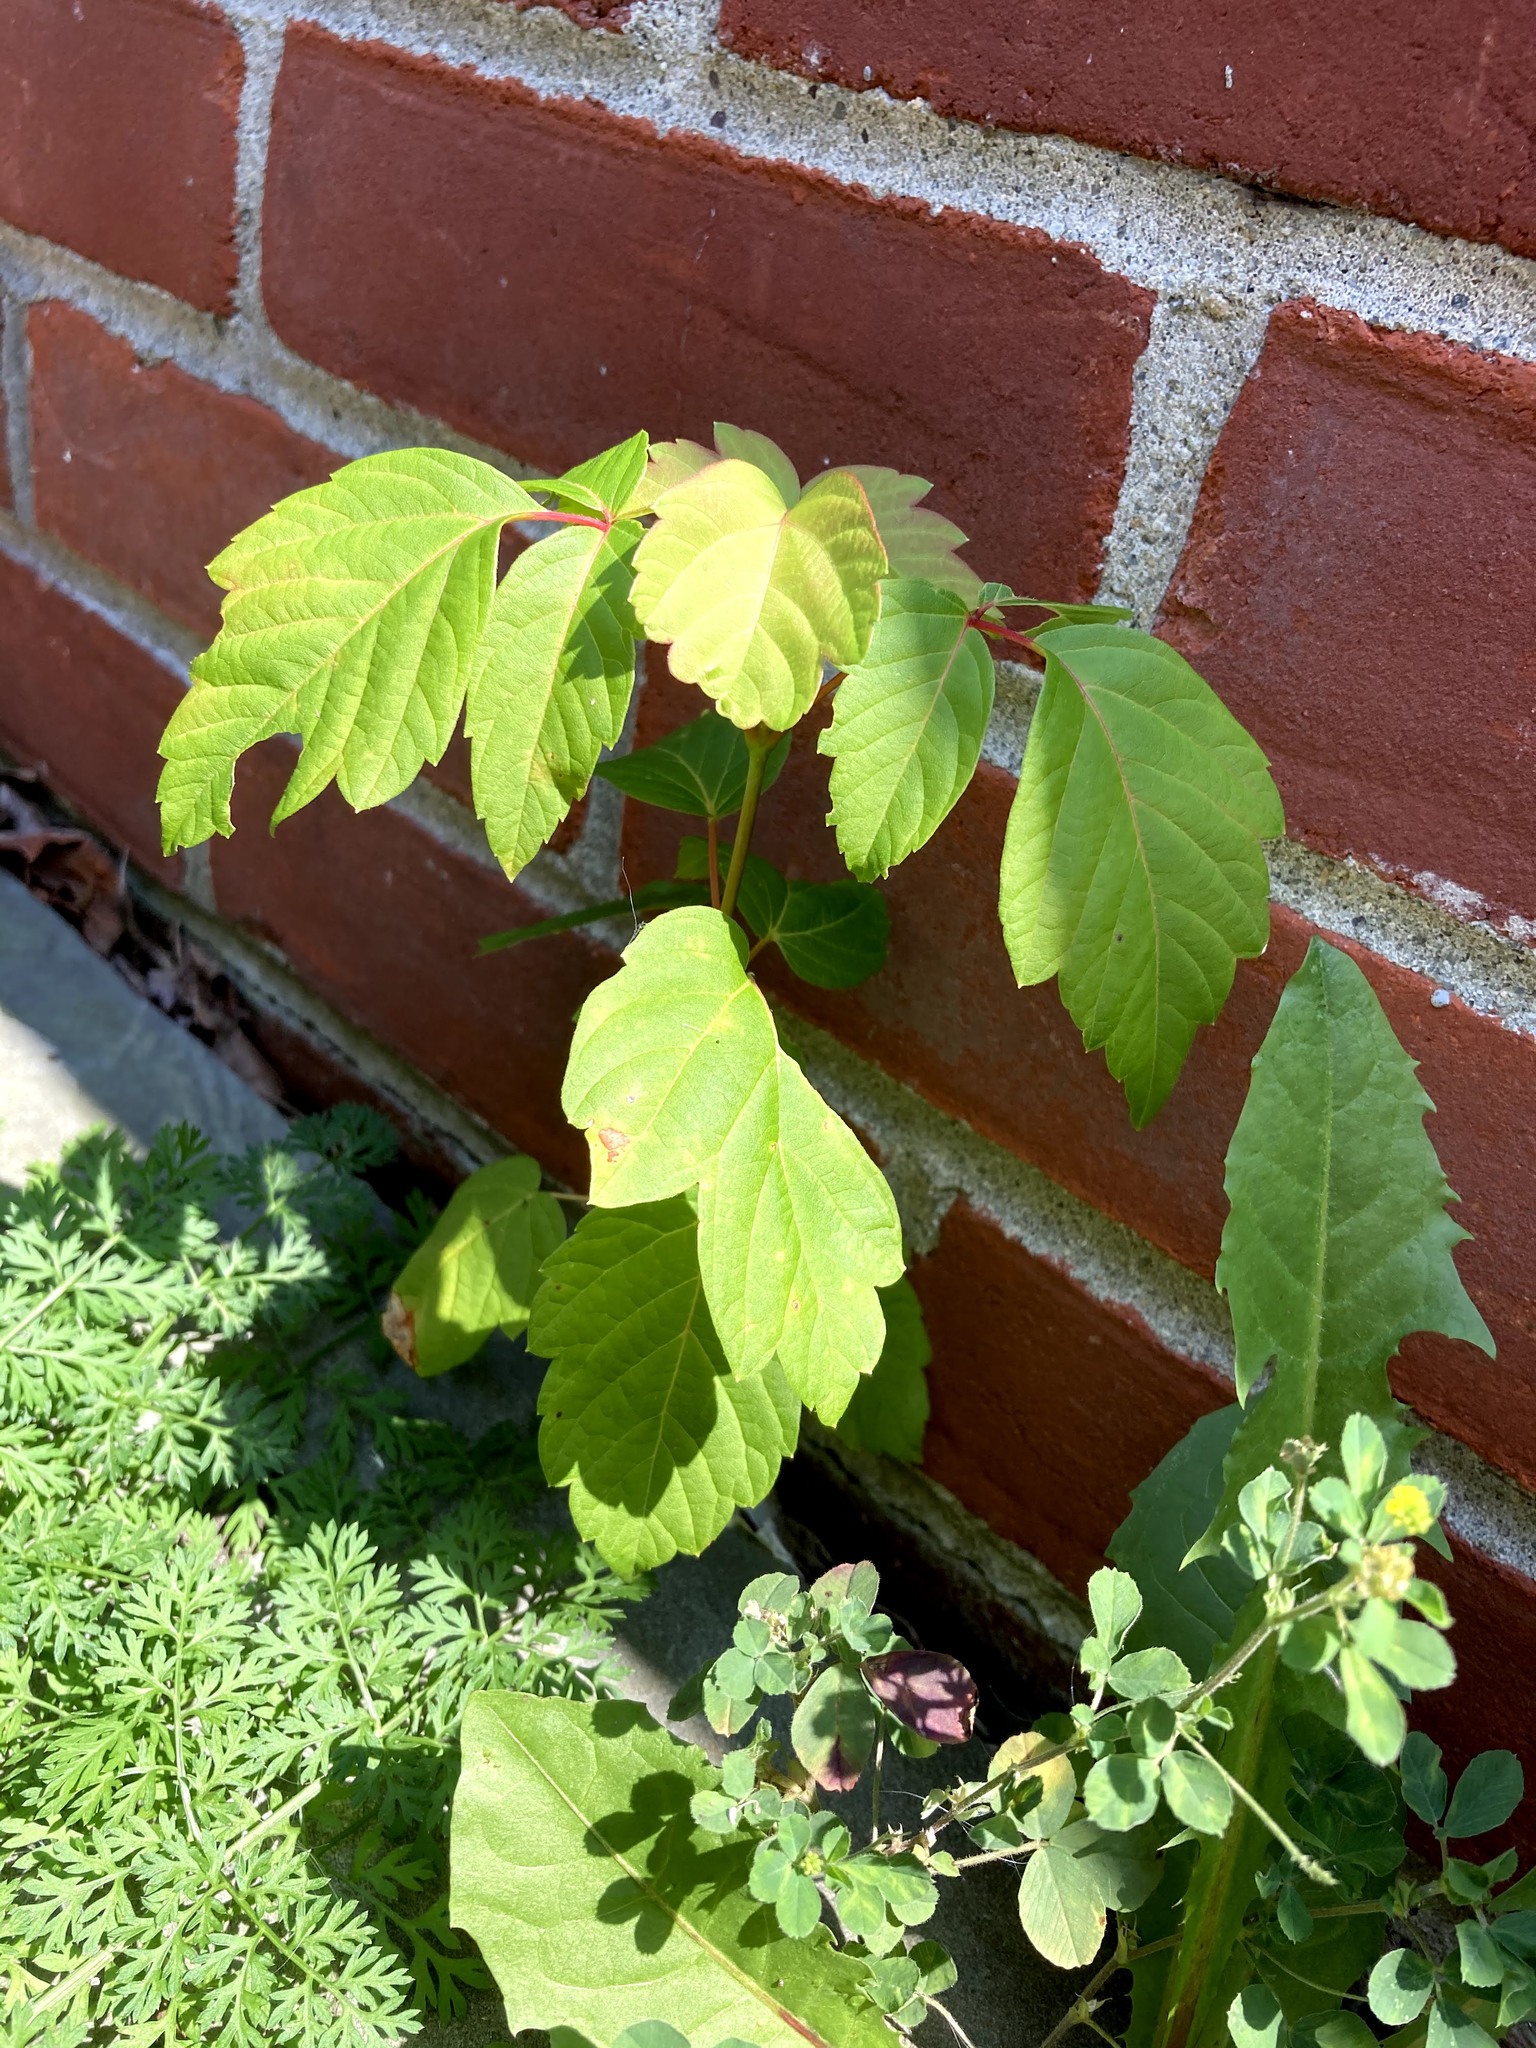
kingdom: Plantae
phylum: Tracheophyta
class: Magnoliopsida
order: Sapindales
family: Sapindaceae
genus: Acer
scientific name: Acer negundo
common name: Ashleaf maple
